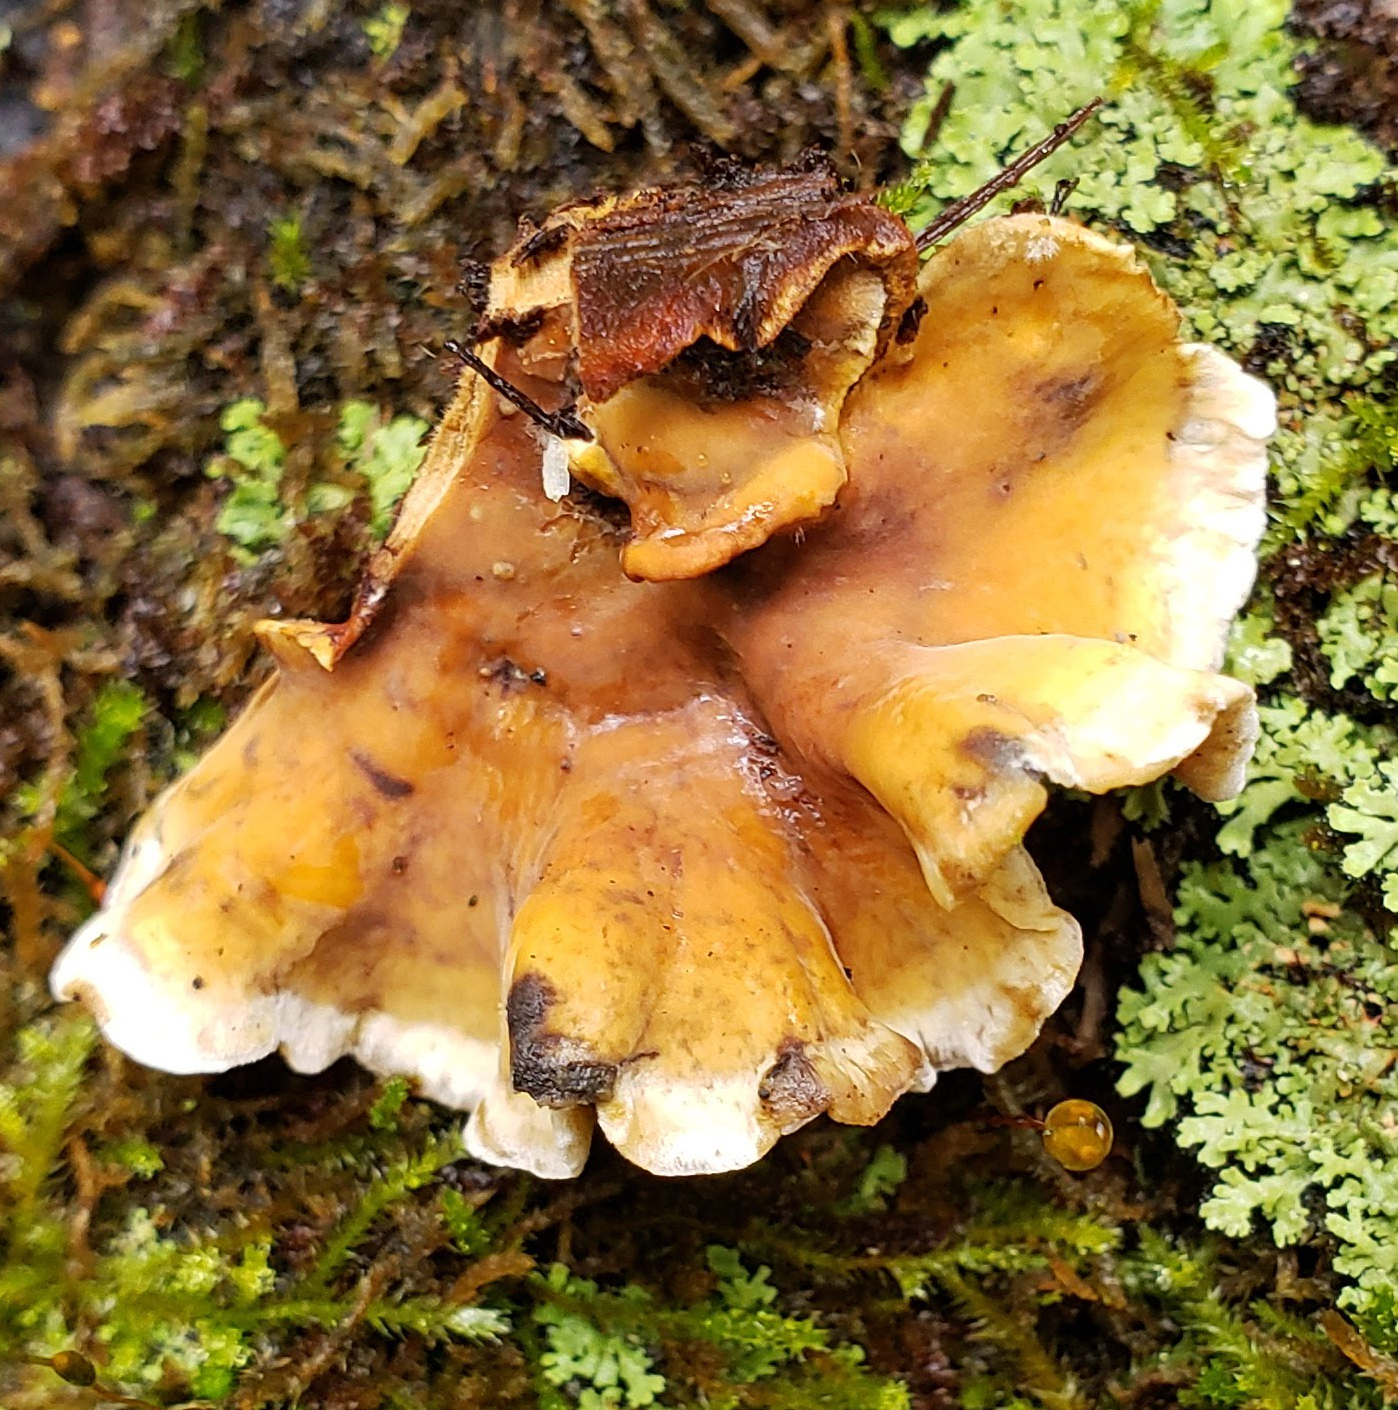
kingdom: Fungi
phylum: Basidiomycota
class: Agaricomycetes
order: Russulales
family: Stereaceae
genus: Stereum
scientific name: Stereum hirsutum
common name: Hairy curtain crust
